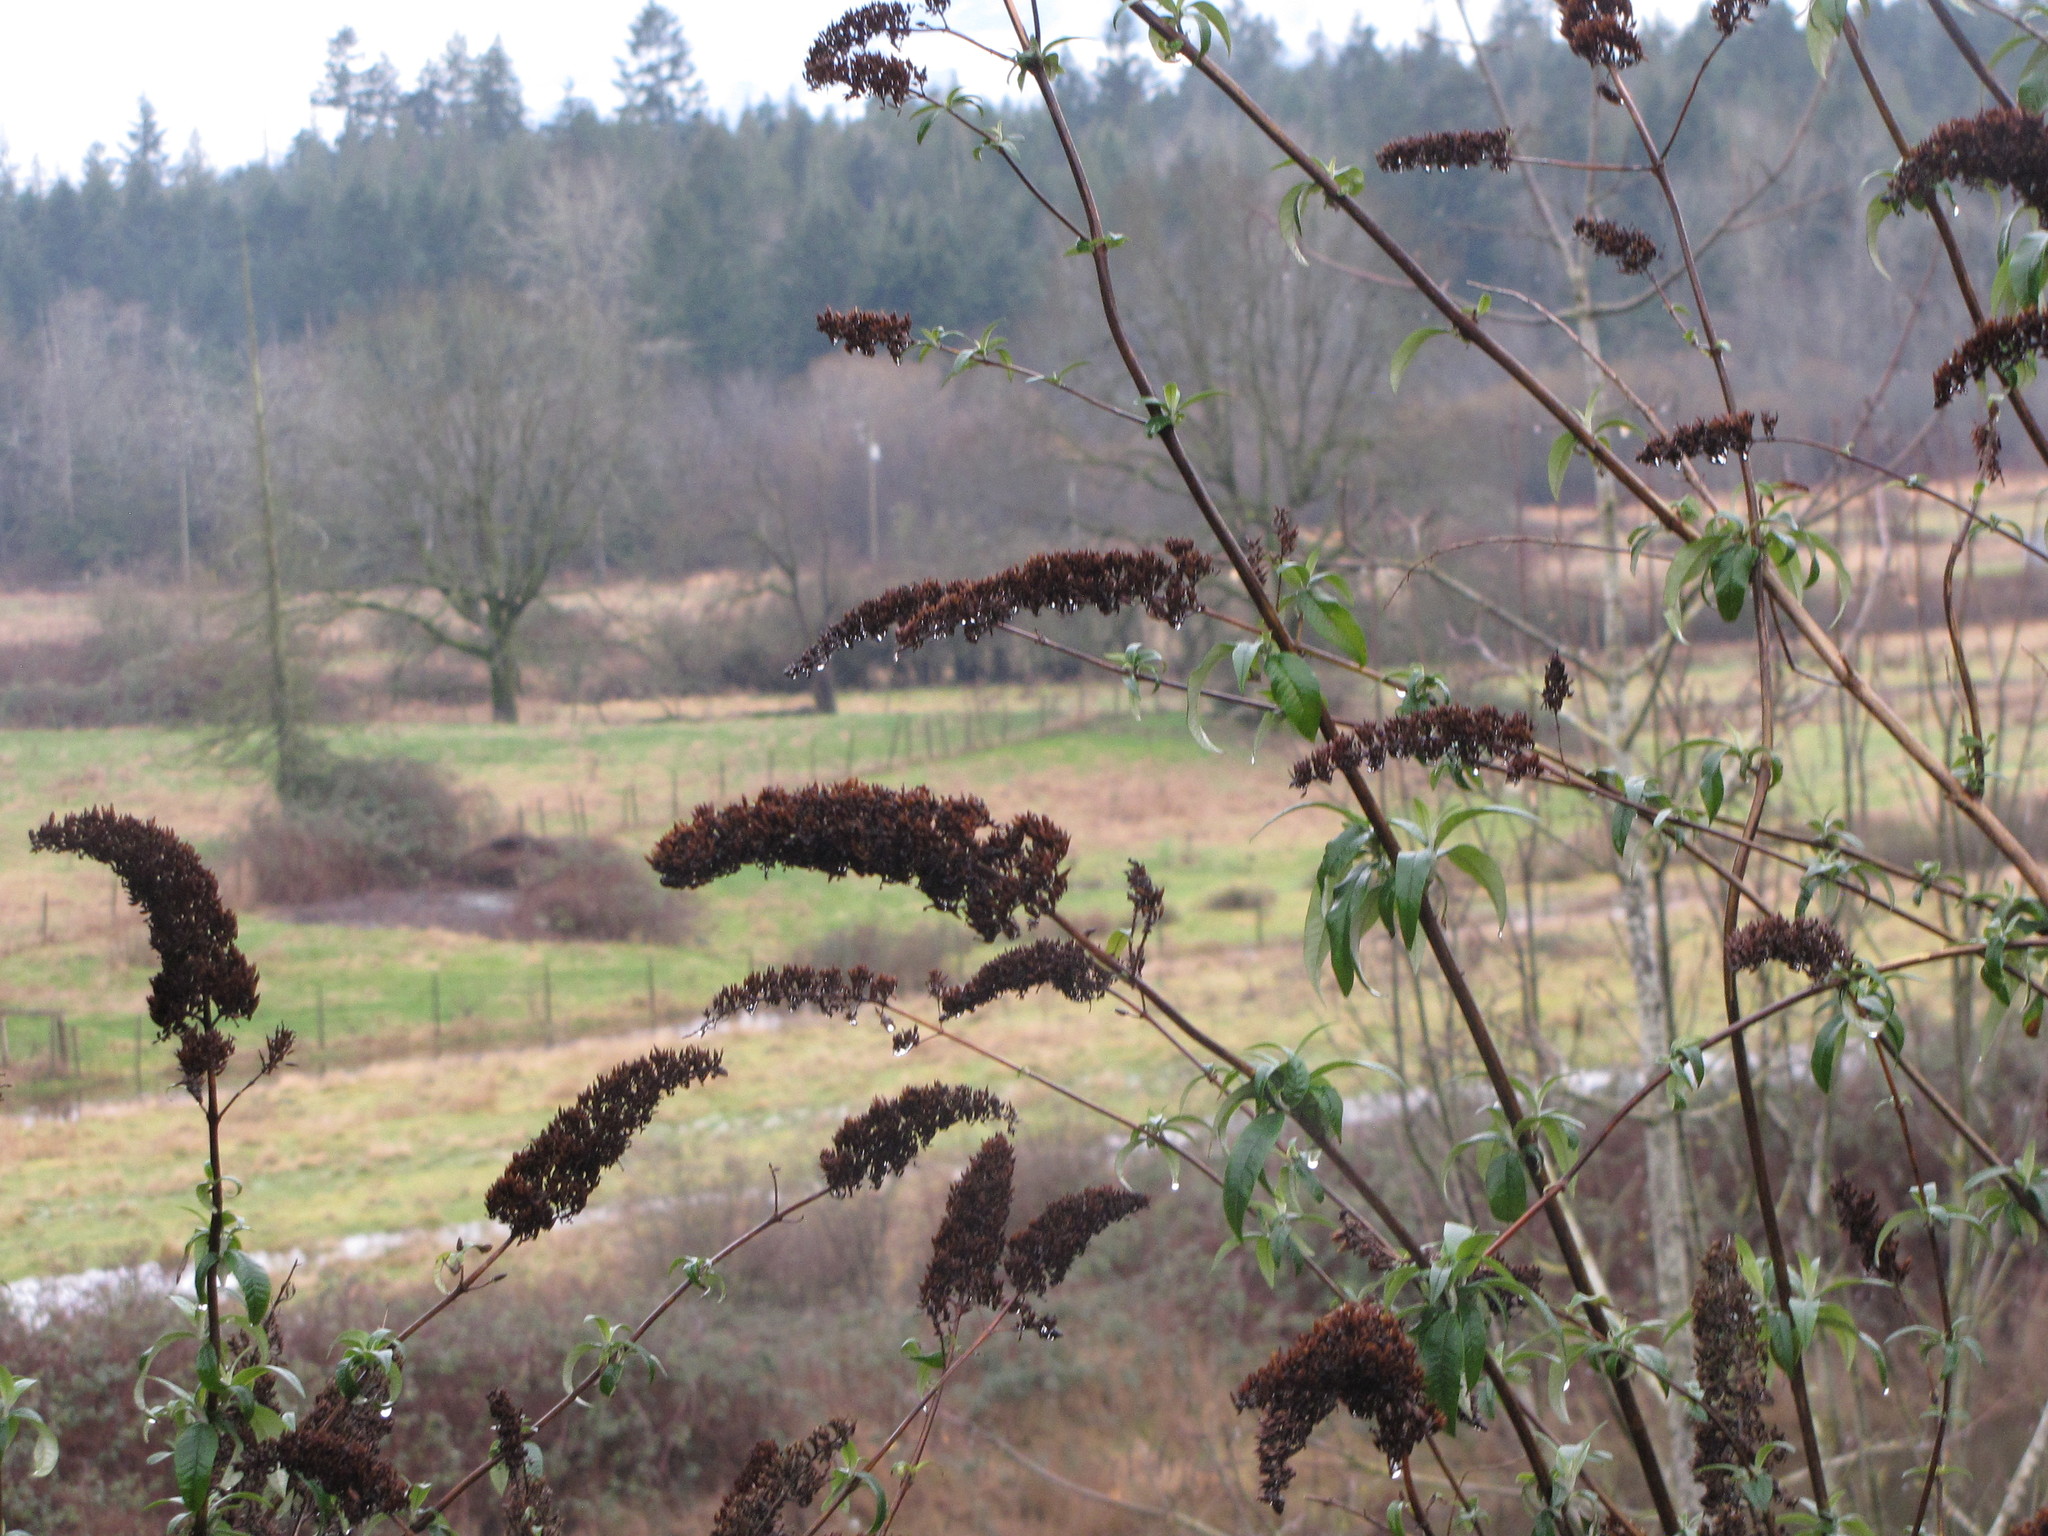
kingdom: Plantae
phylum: Tracheophyta
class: Magnoliopsida
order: Lamiales
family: Scrophulariaceae
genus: Buddleja
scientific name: Buddleja davidii
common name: Butterfly-bush
